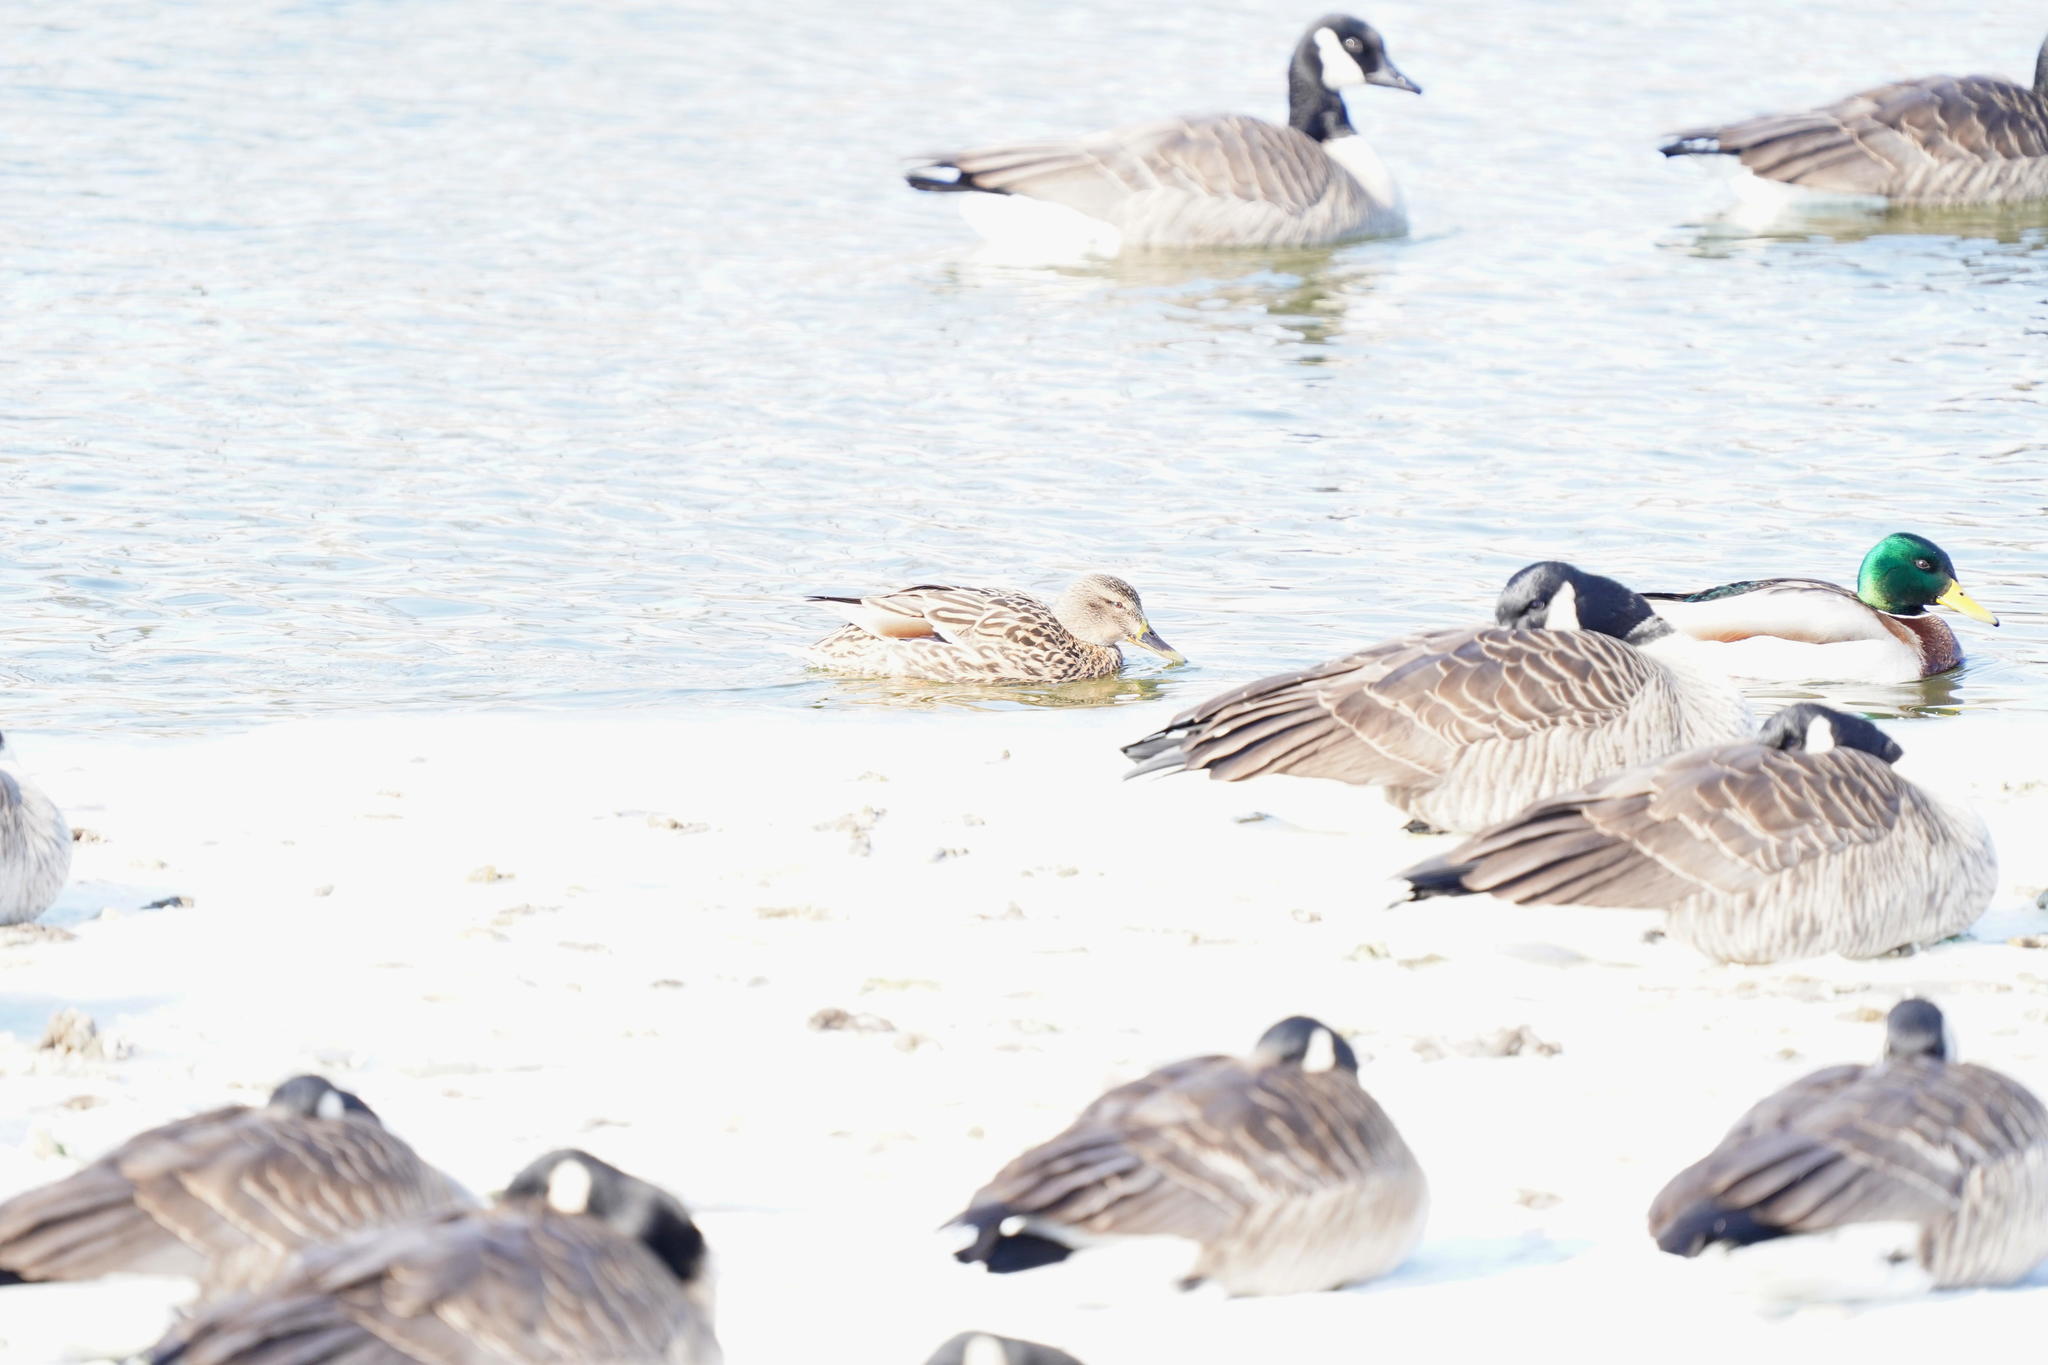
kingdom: Animalia
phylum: Chordata
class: Aves
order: Anseriformes
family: Anatidae
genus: Anas
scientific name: Anas platyrhynchos
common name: Mallard
